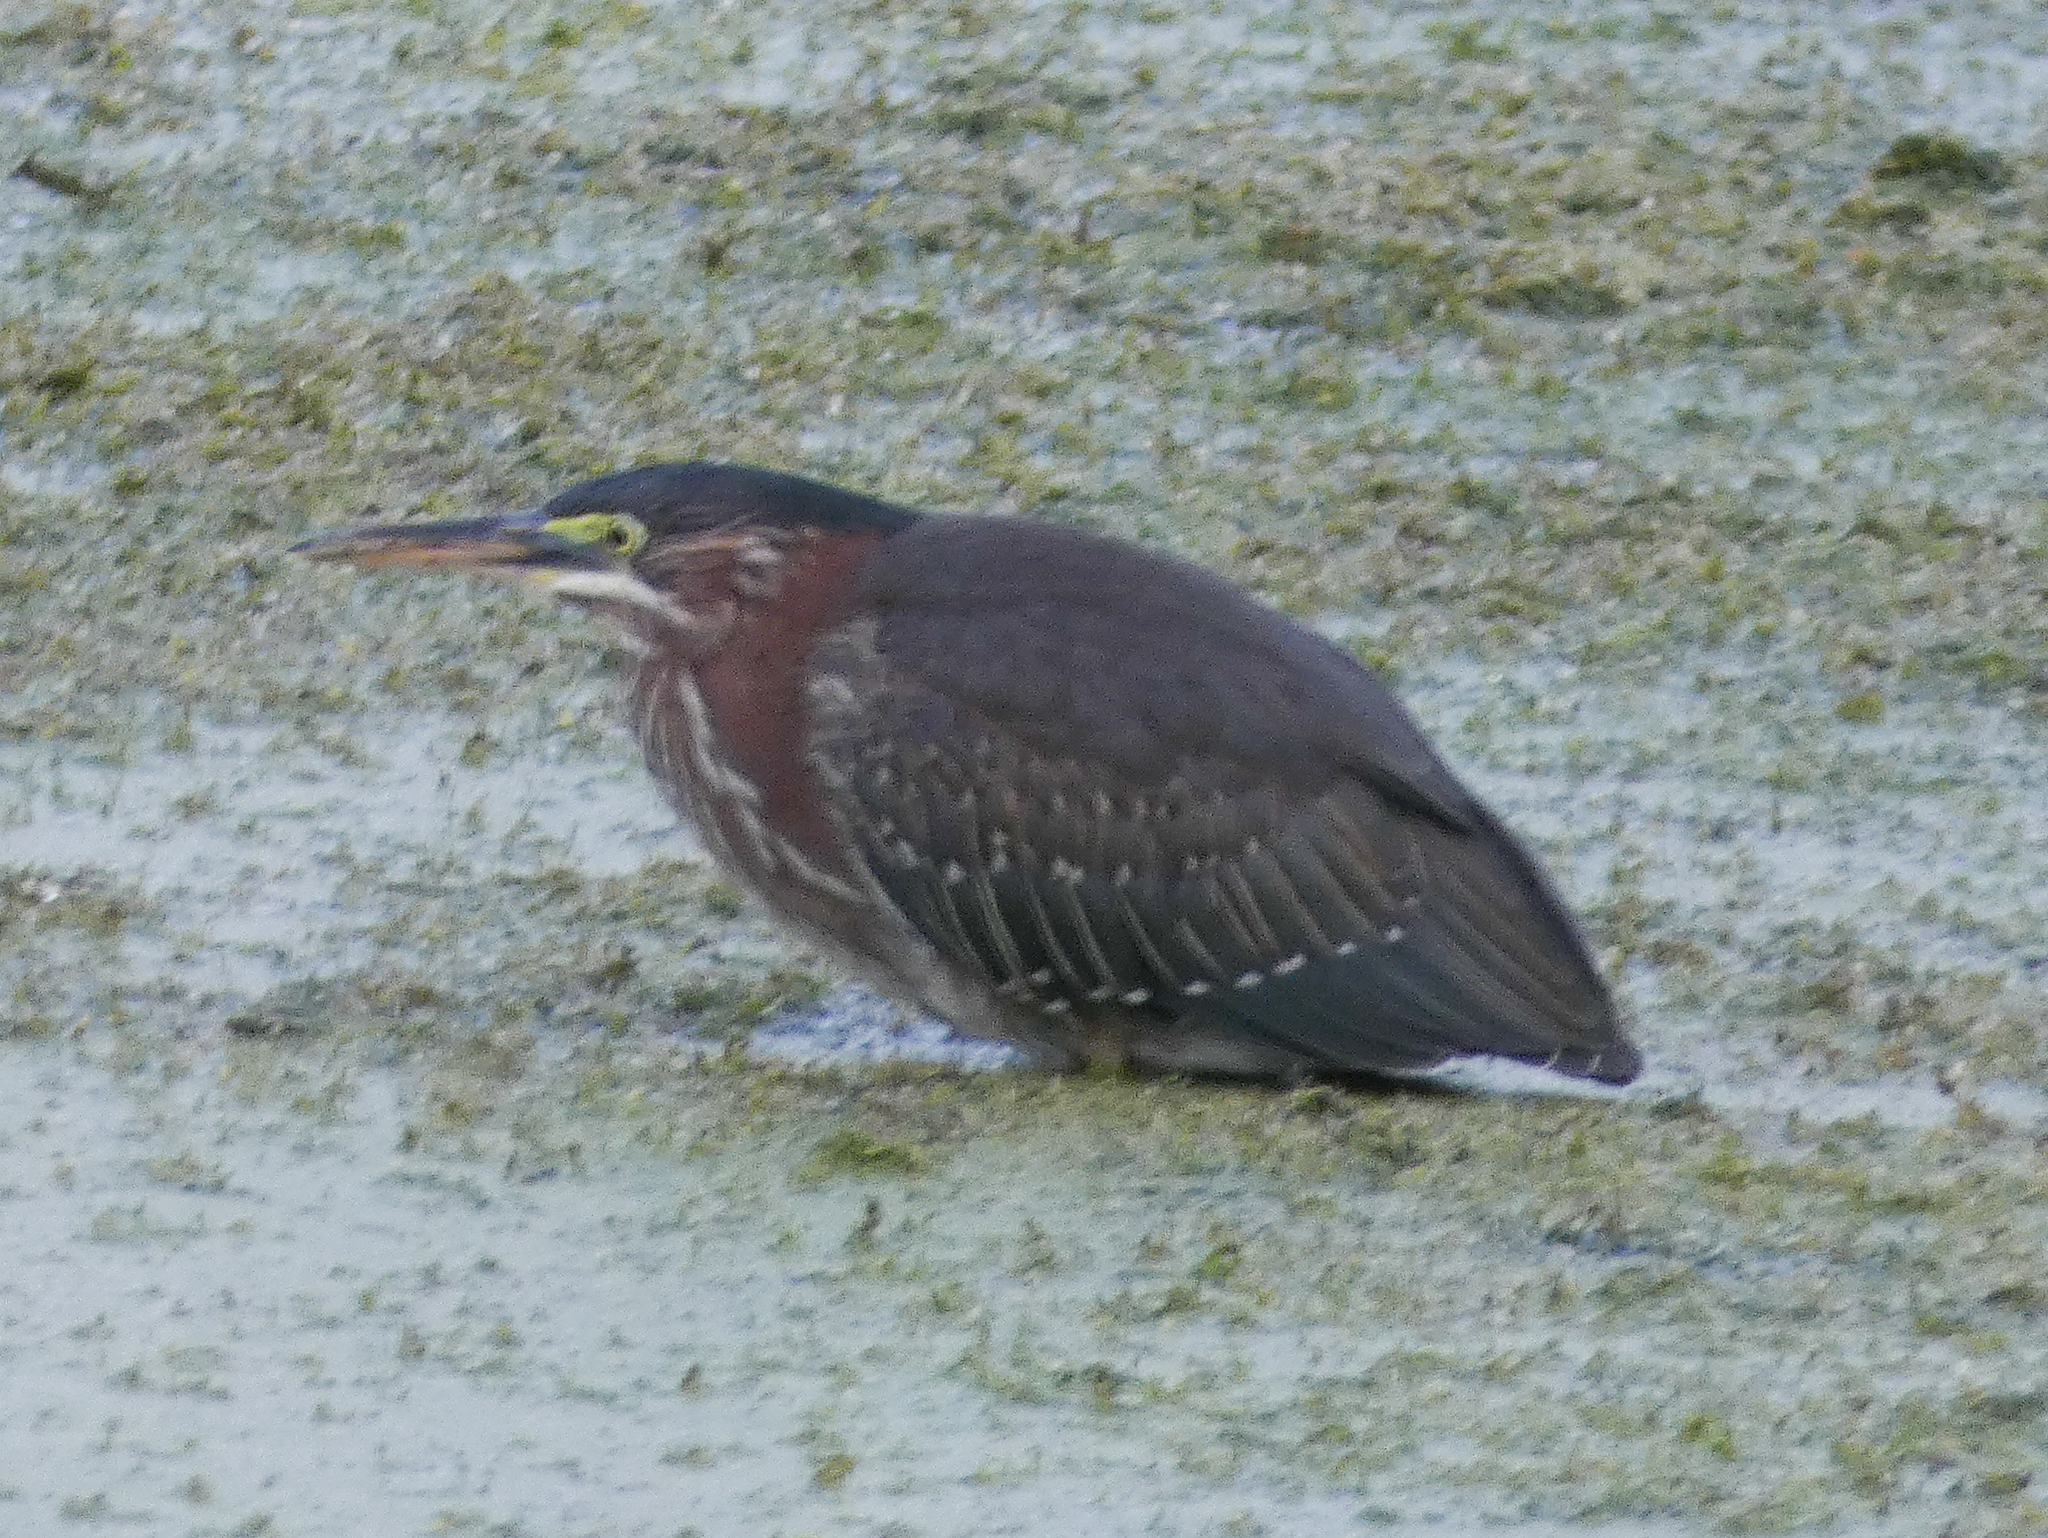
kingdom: Animalia
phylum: Chordata
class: Aves
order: Pelecaniformes
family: Ardeidae
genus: Butorides
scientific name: Butorides virescens
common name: Green heron
